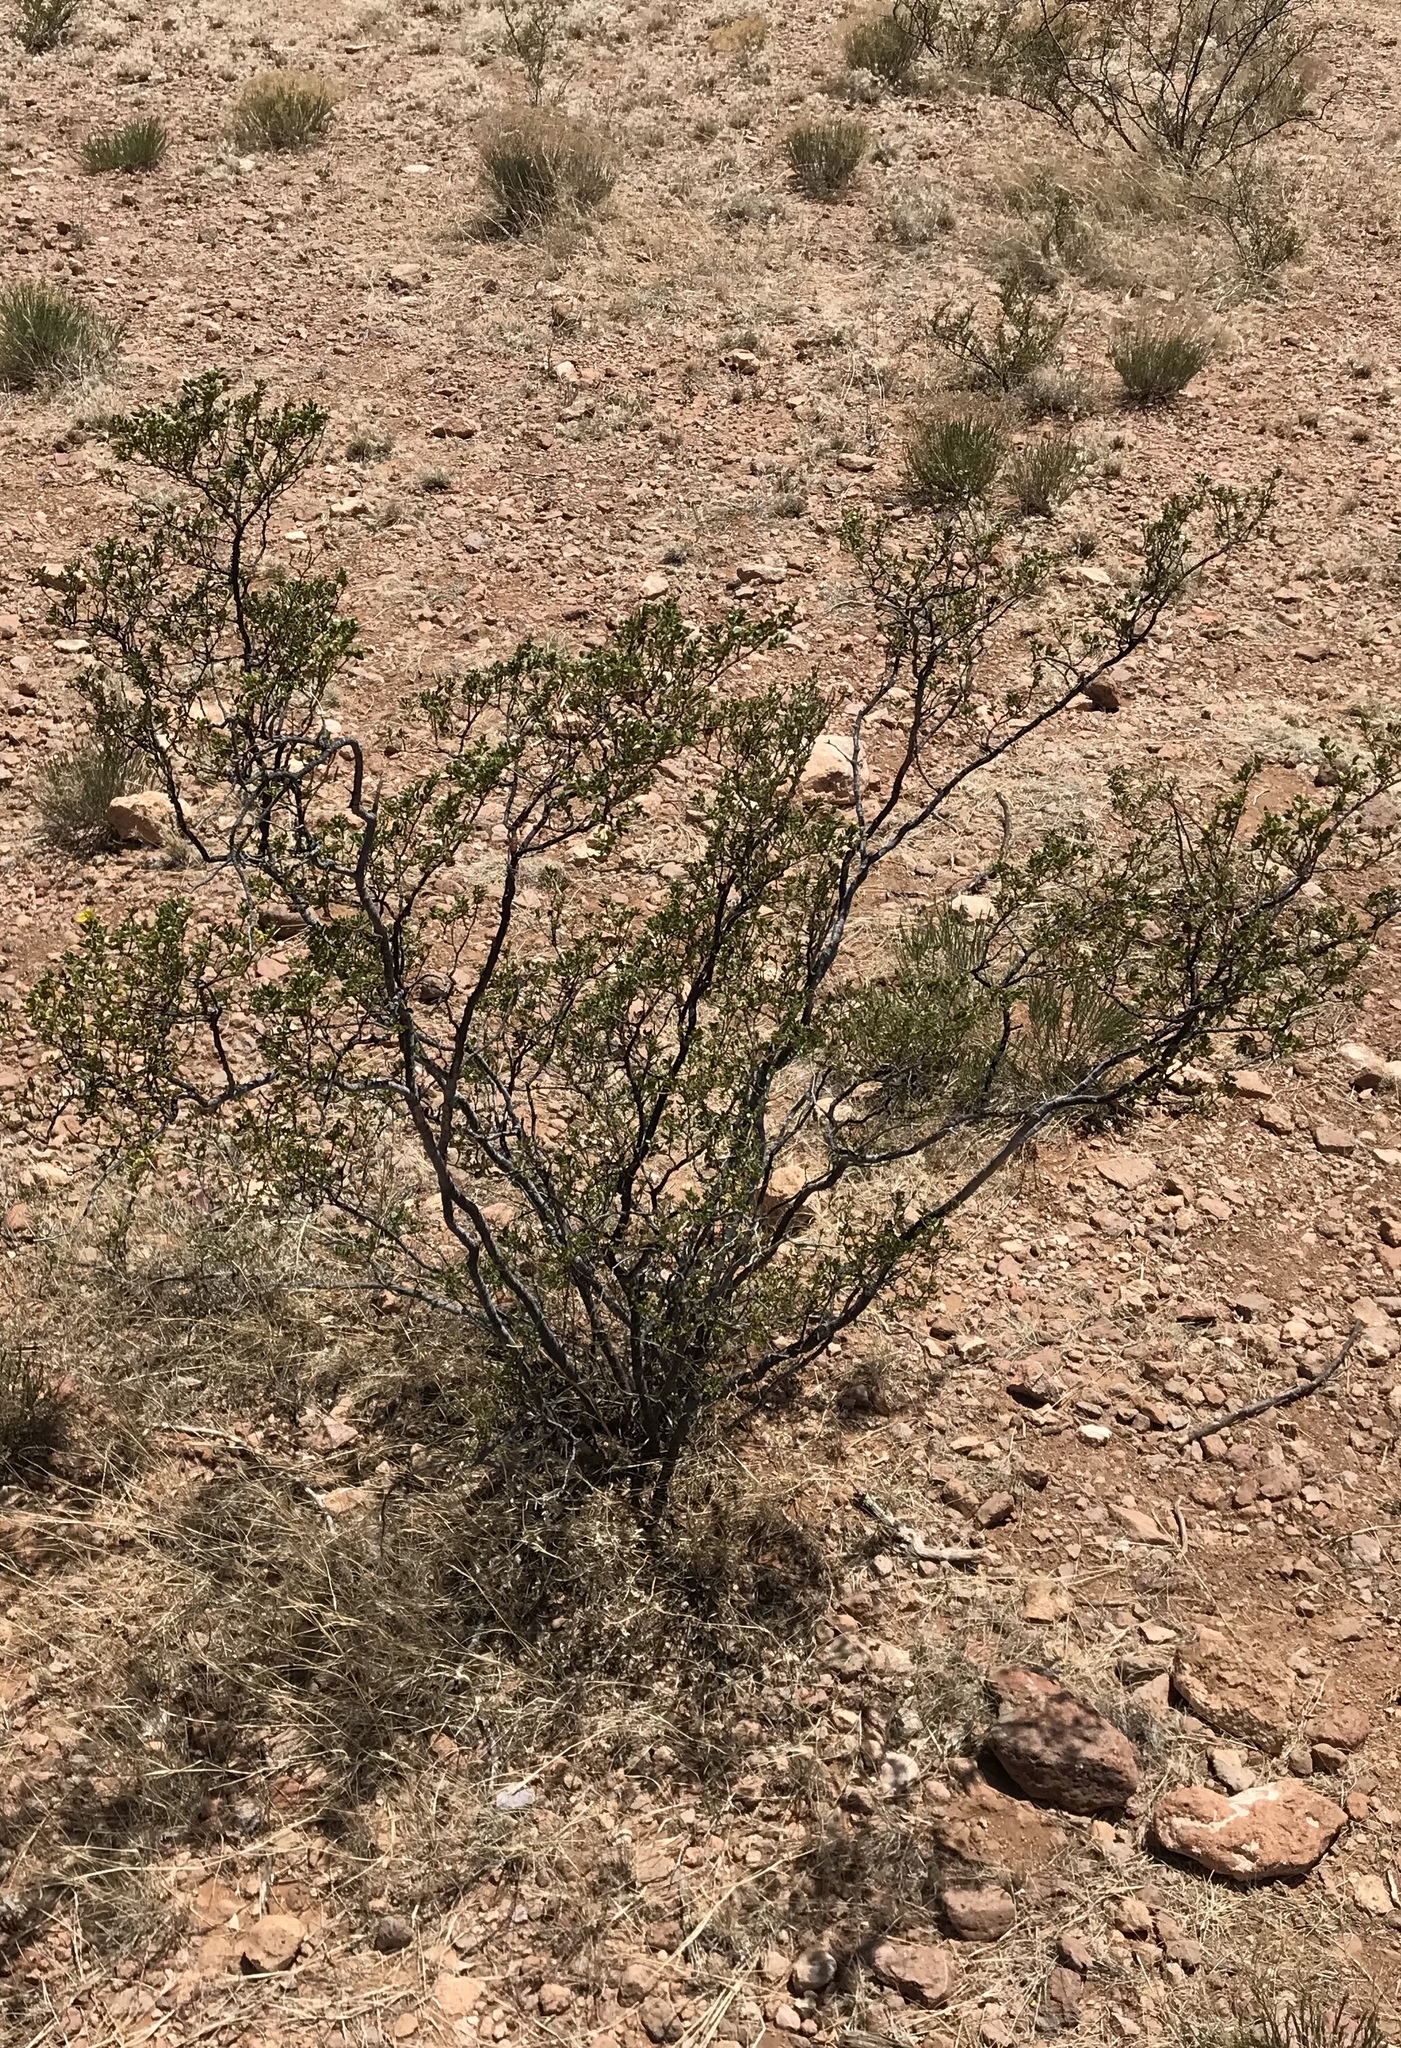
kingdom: Animalia
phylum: Arthropoda
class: Insecta
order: Hemiptera
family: Kerriidae
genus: Tachardiella
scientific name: Tachardiella larreae
